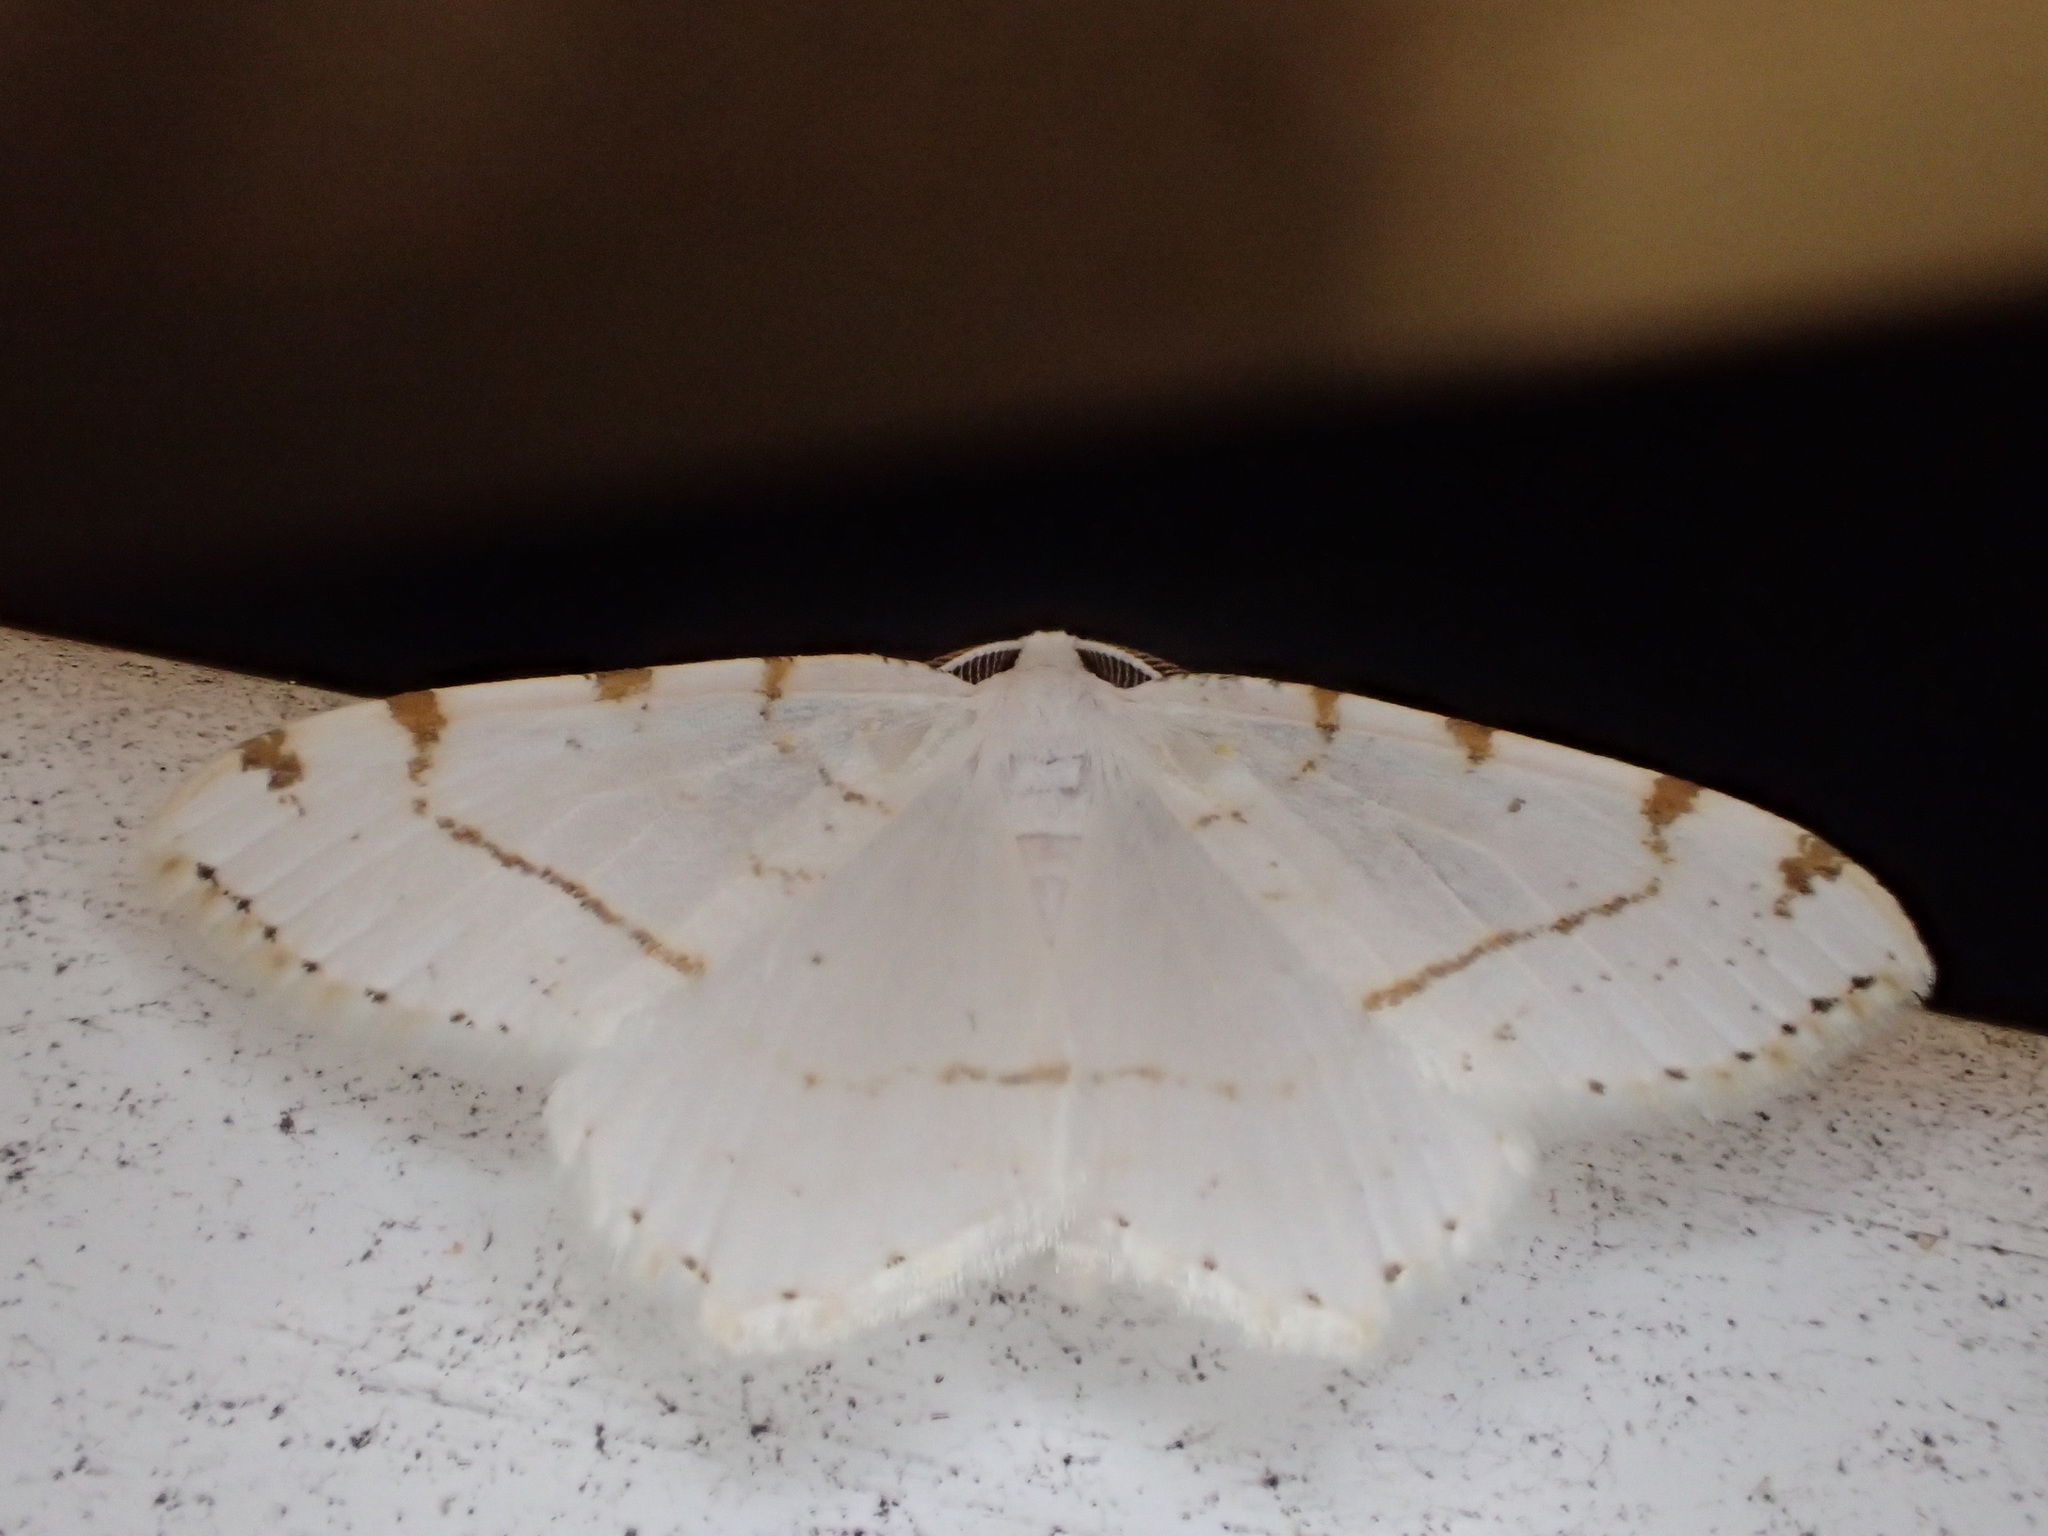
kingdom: Animalia
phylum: Arthropoda
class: Insecta
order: Lepidoptera
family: Geometridae
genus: Macaria
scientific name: Macaria pustularia
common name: Lesser maple spanworm moth
